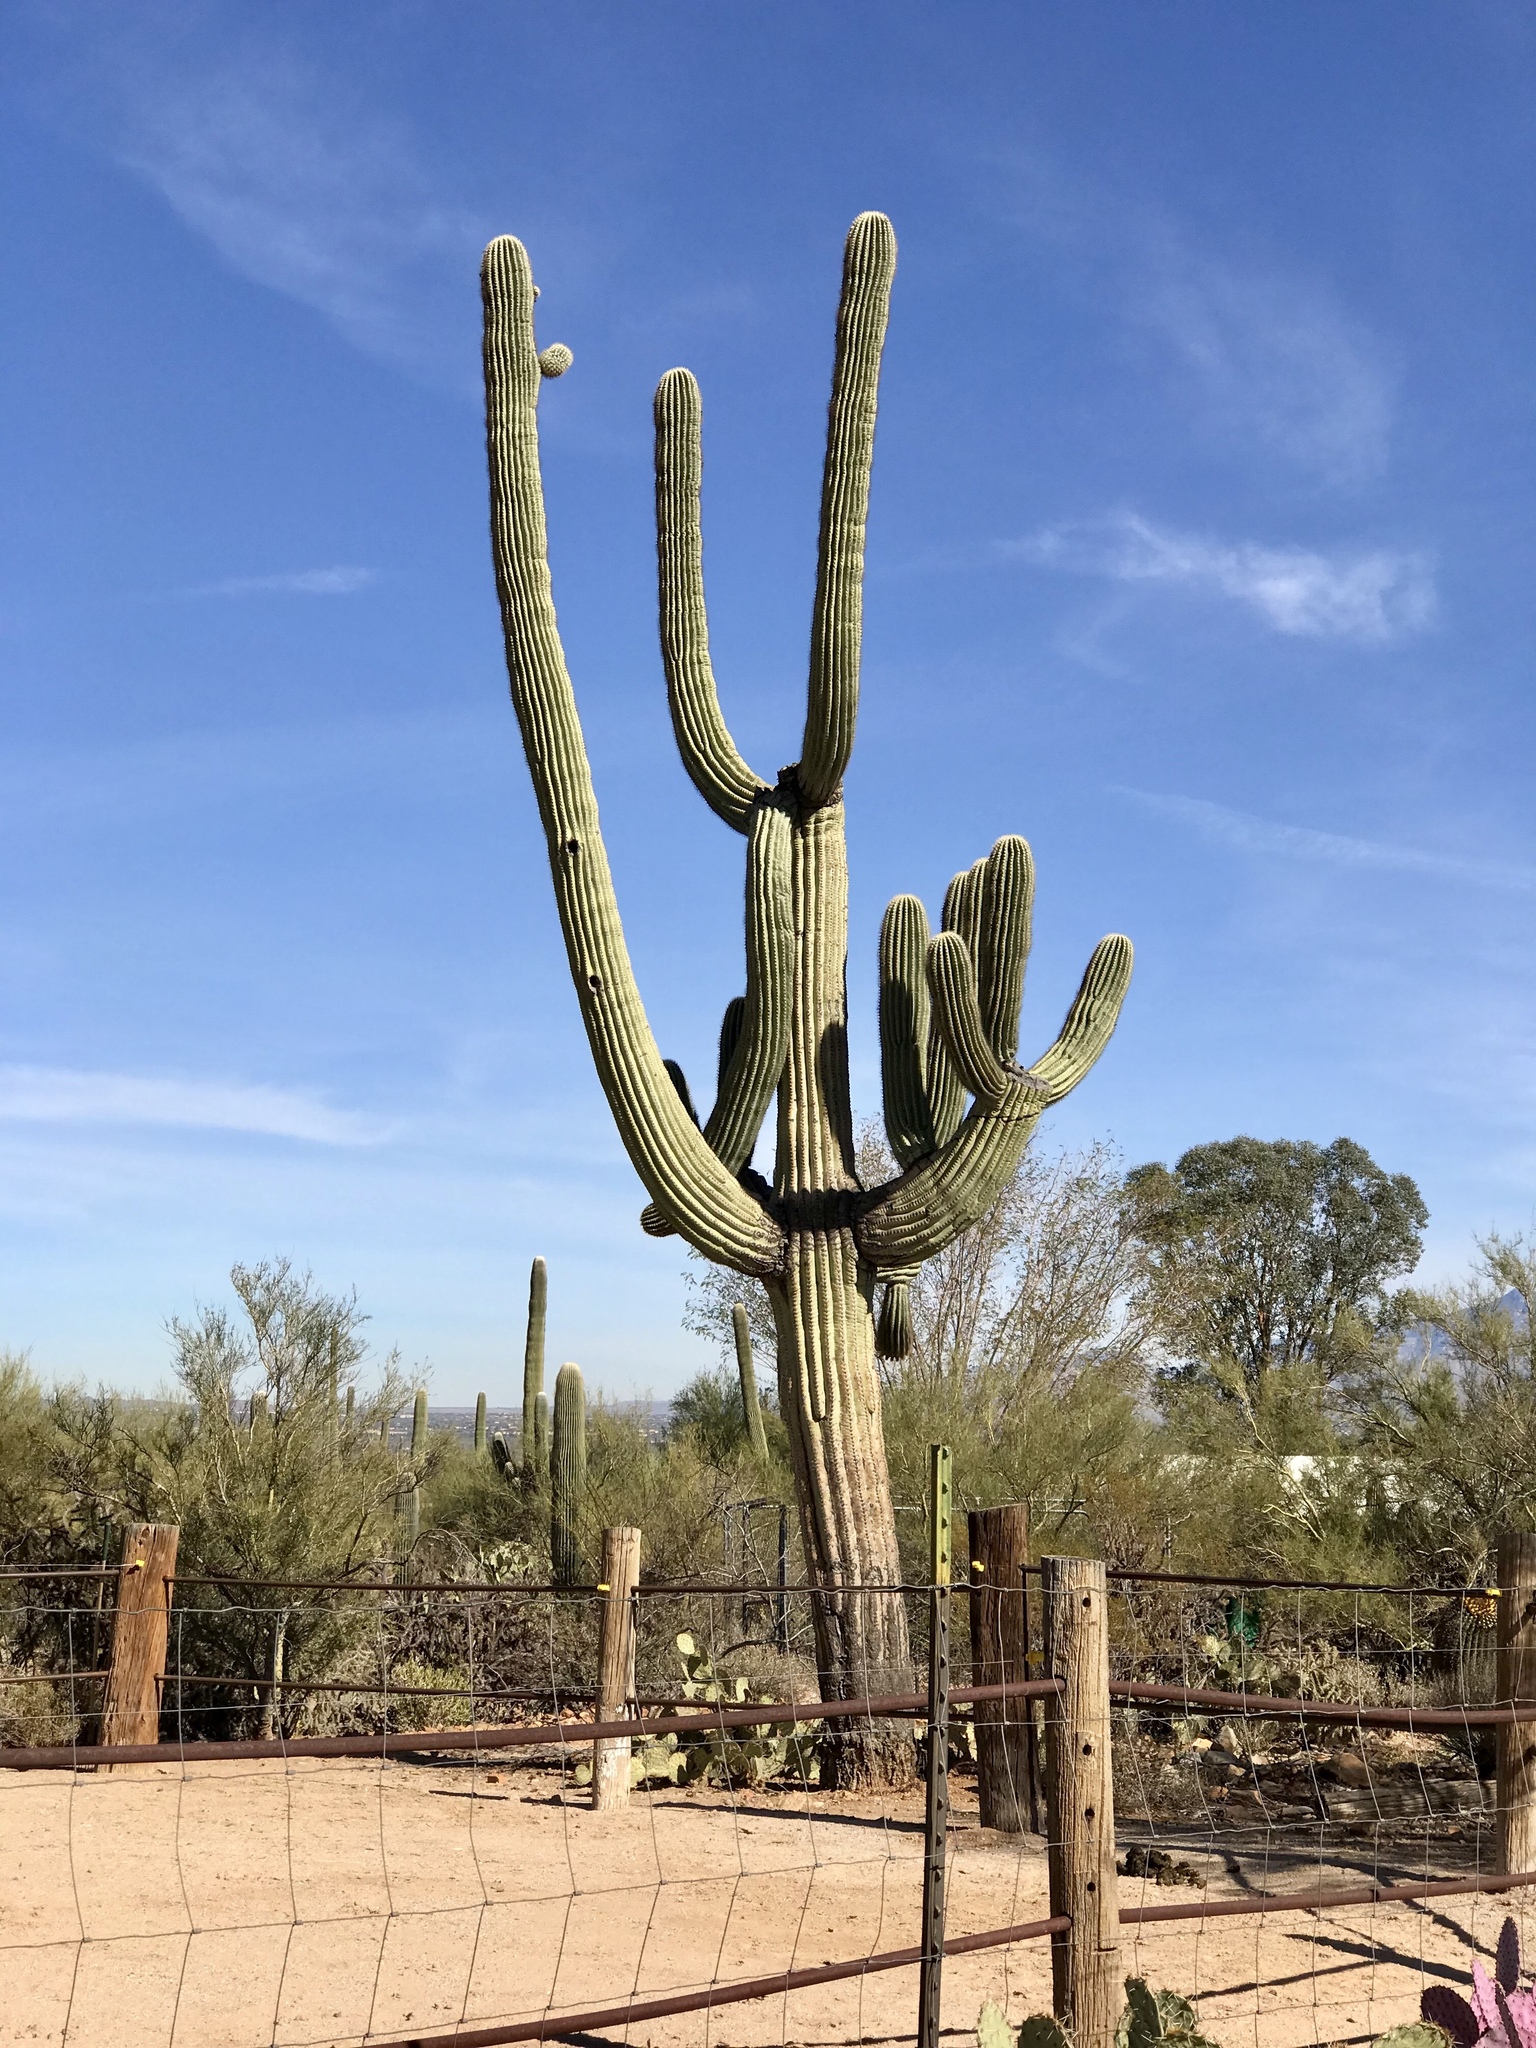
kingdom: Plantae
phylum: Tracheophyta
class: Magnoliopsida
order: Caryophyllales
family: Cactaceae
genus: Carnegiea
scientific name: Carnegiea gigantea
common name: Saguaro
